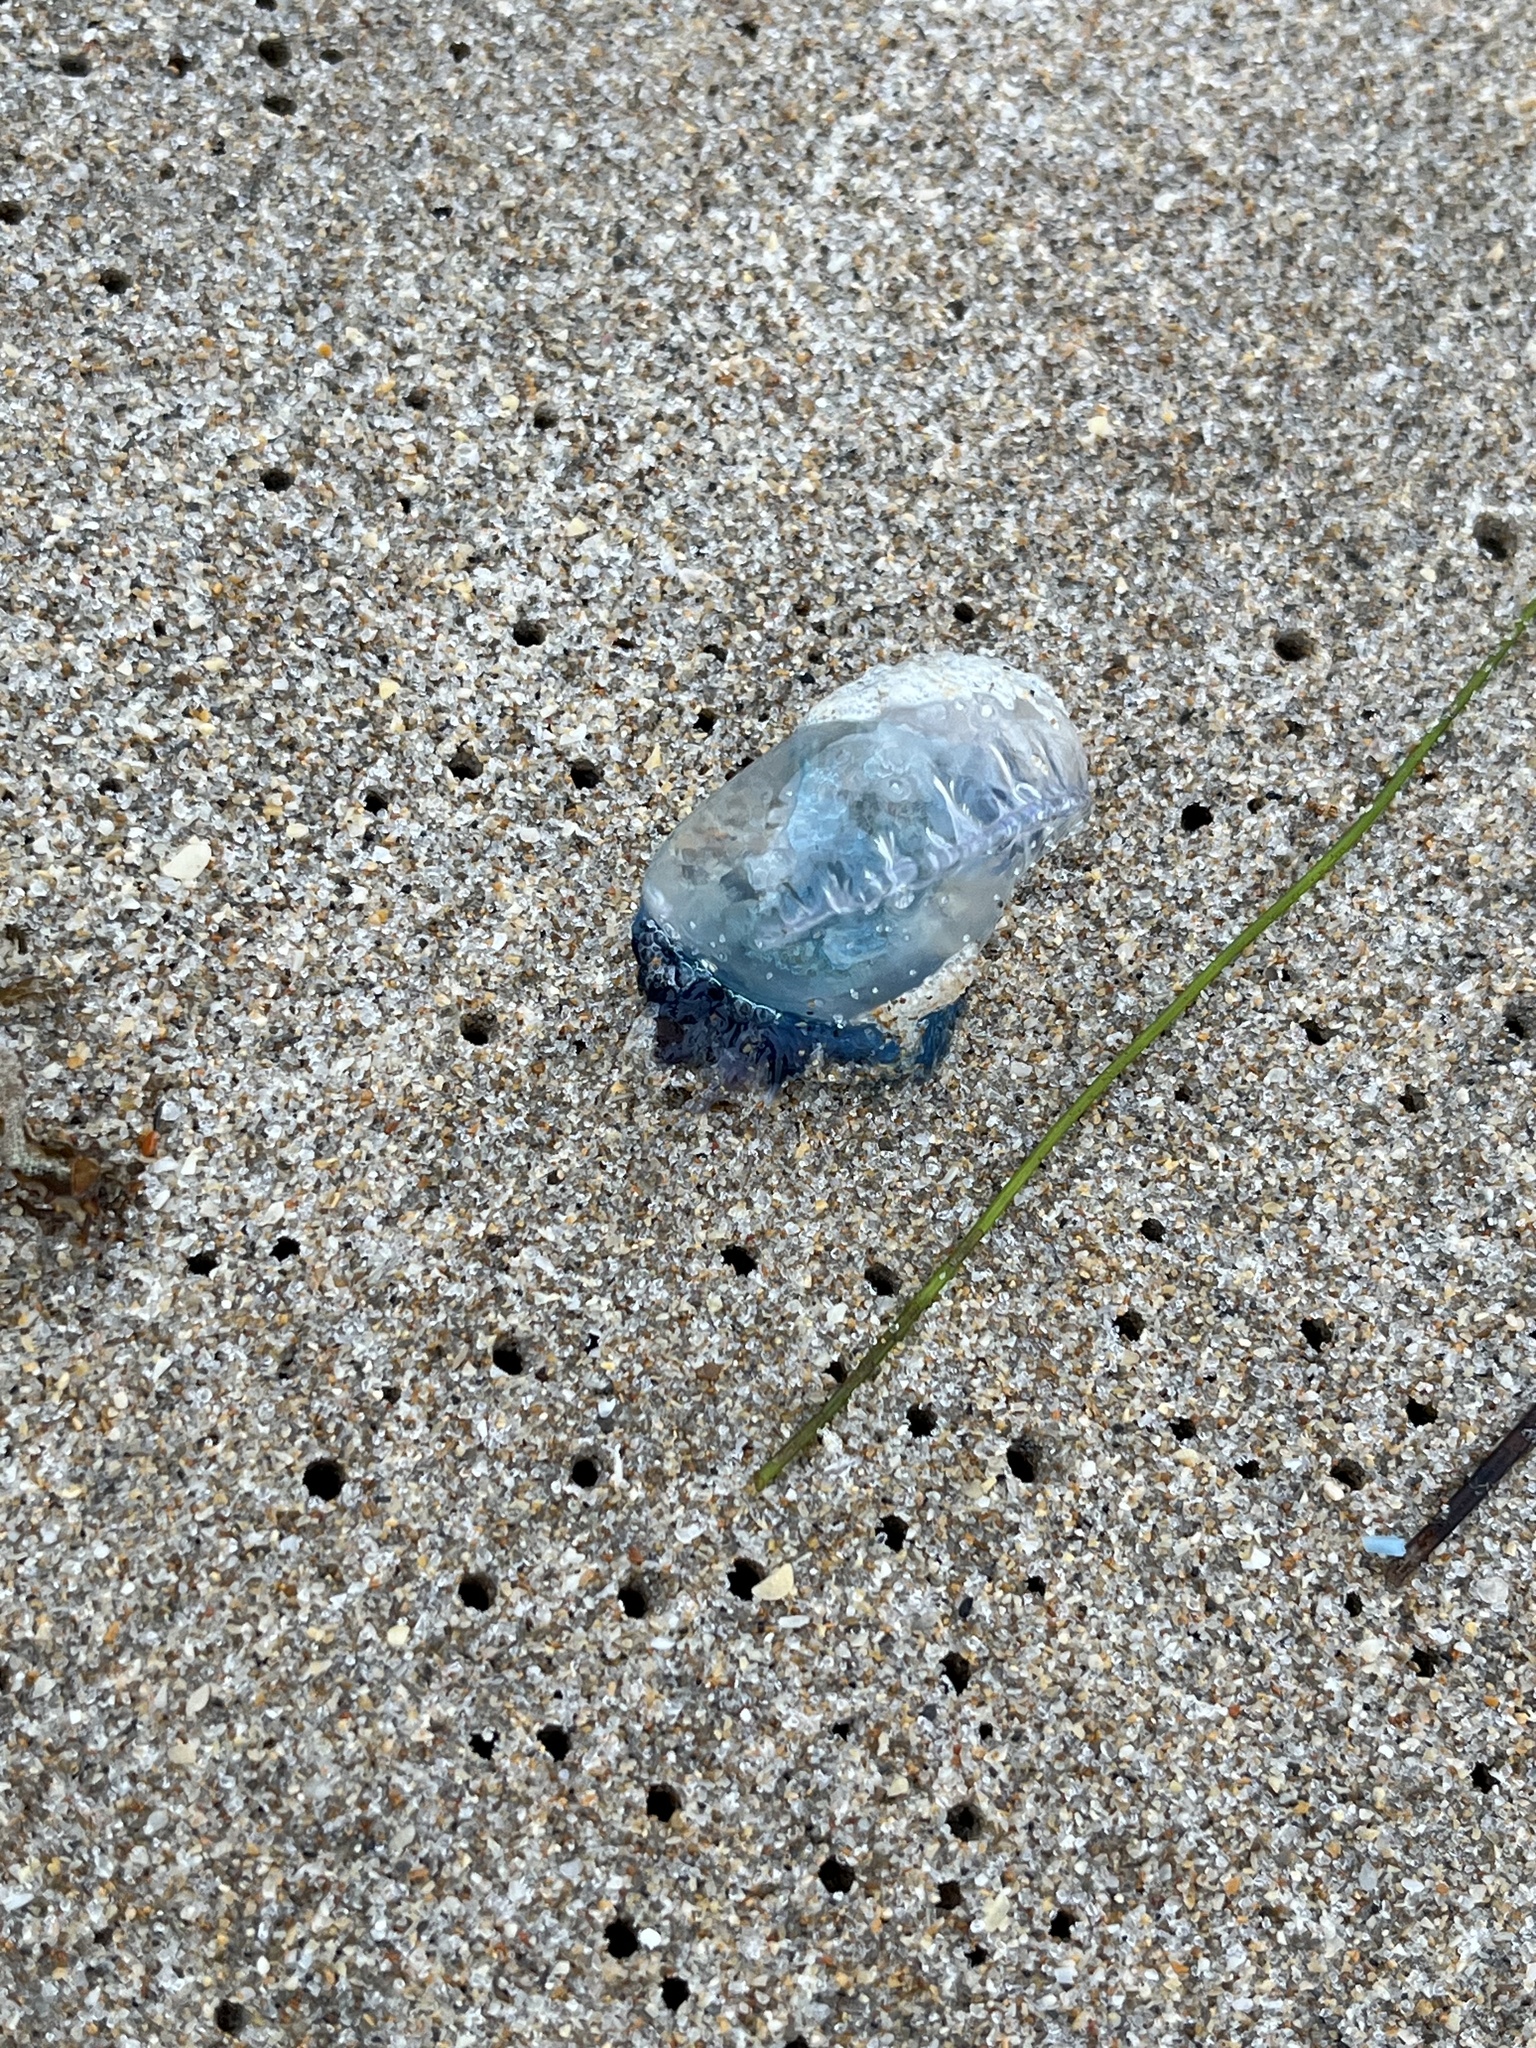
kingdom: Animalia
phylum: Cnidaria
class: Hydrozoa
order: Siphonophorae
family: Physaliidae
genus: Physalia
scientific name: Physalia physalis
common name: Portuguese man-of-war
